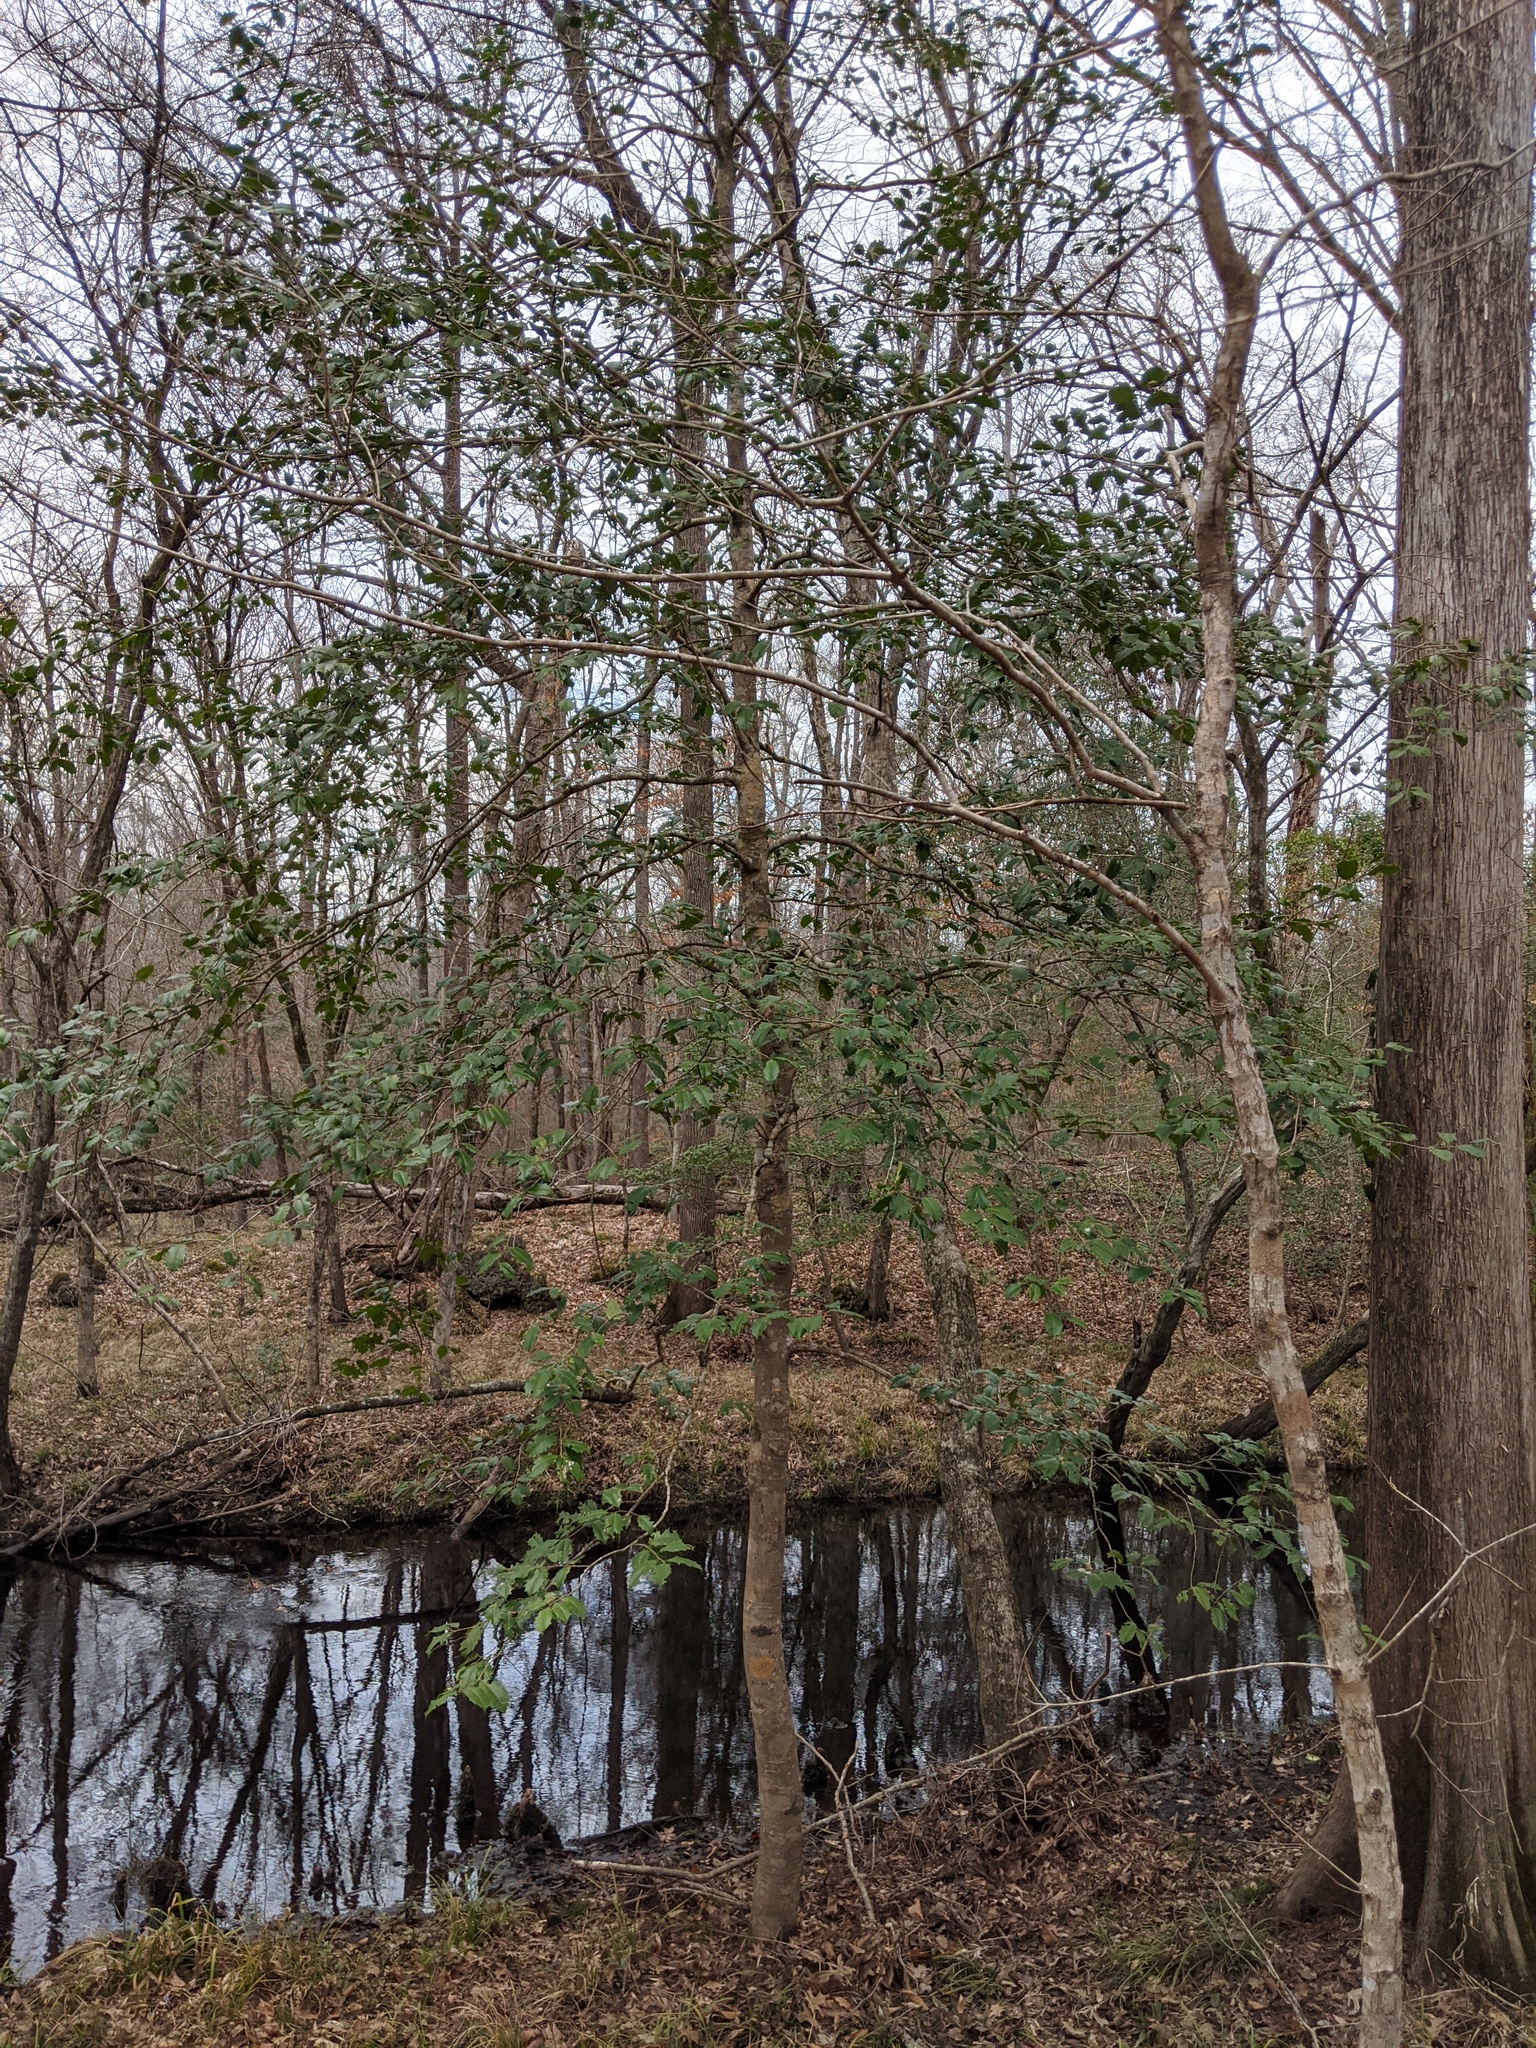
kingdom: Plantae
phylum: Tracheophyta
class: Magnoliopsida
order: Aquifoliales
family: Aquifoliaceae
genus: Ilex
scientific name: Ilex opaca
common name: American holly
